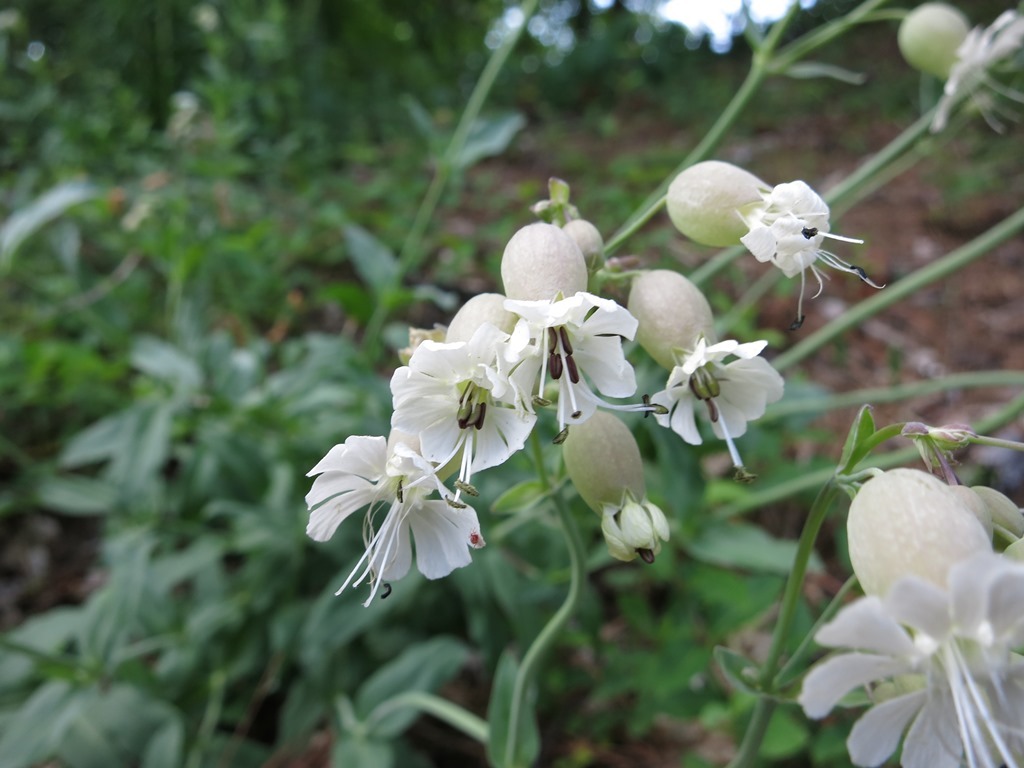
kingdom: Plantae
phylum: Tracheophyta
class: Magnoliopsida
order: Caryophyllales
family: Caryophyllaceae
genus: Silene
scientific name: Silene vulgaris
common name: Bladder campion
